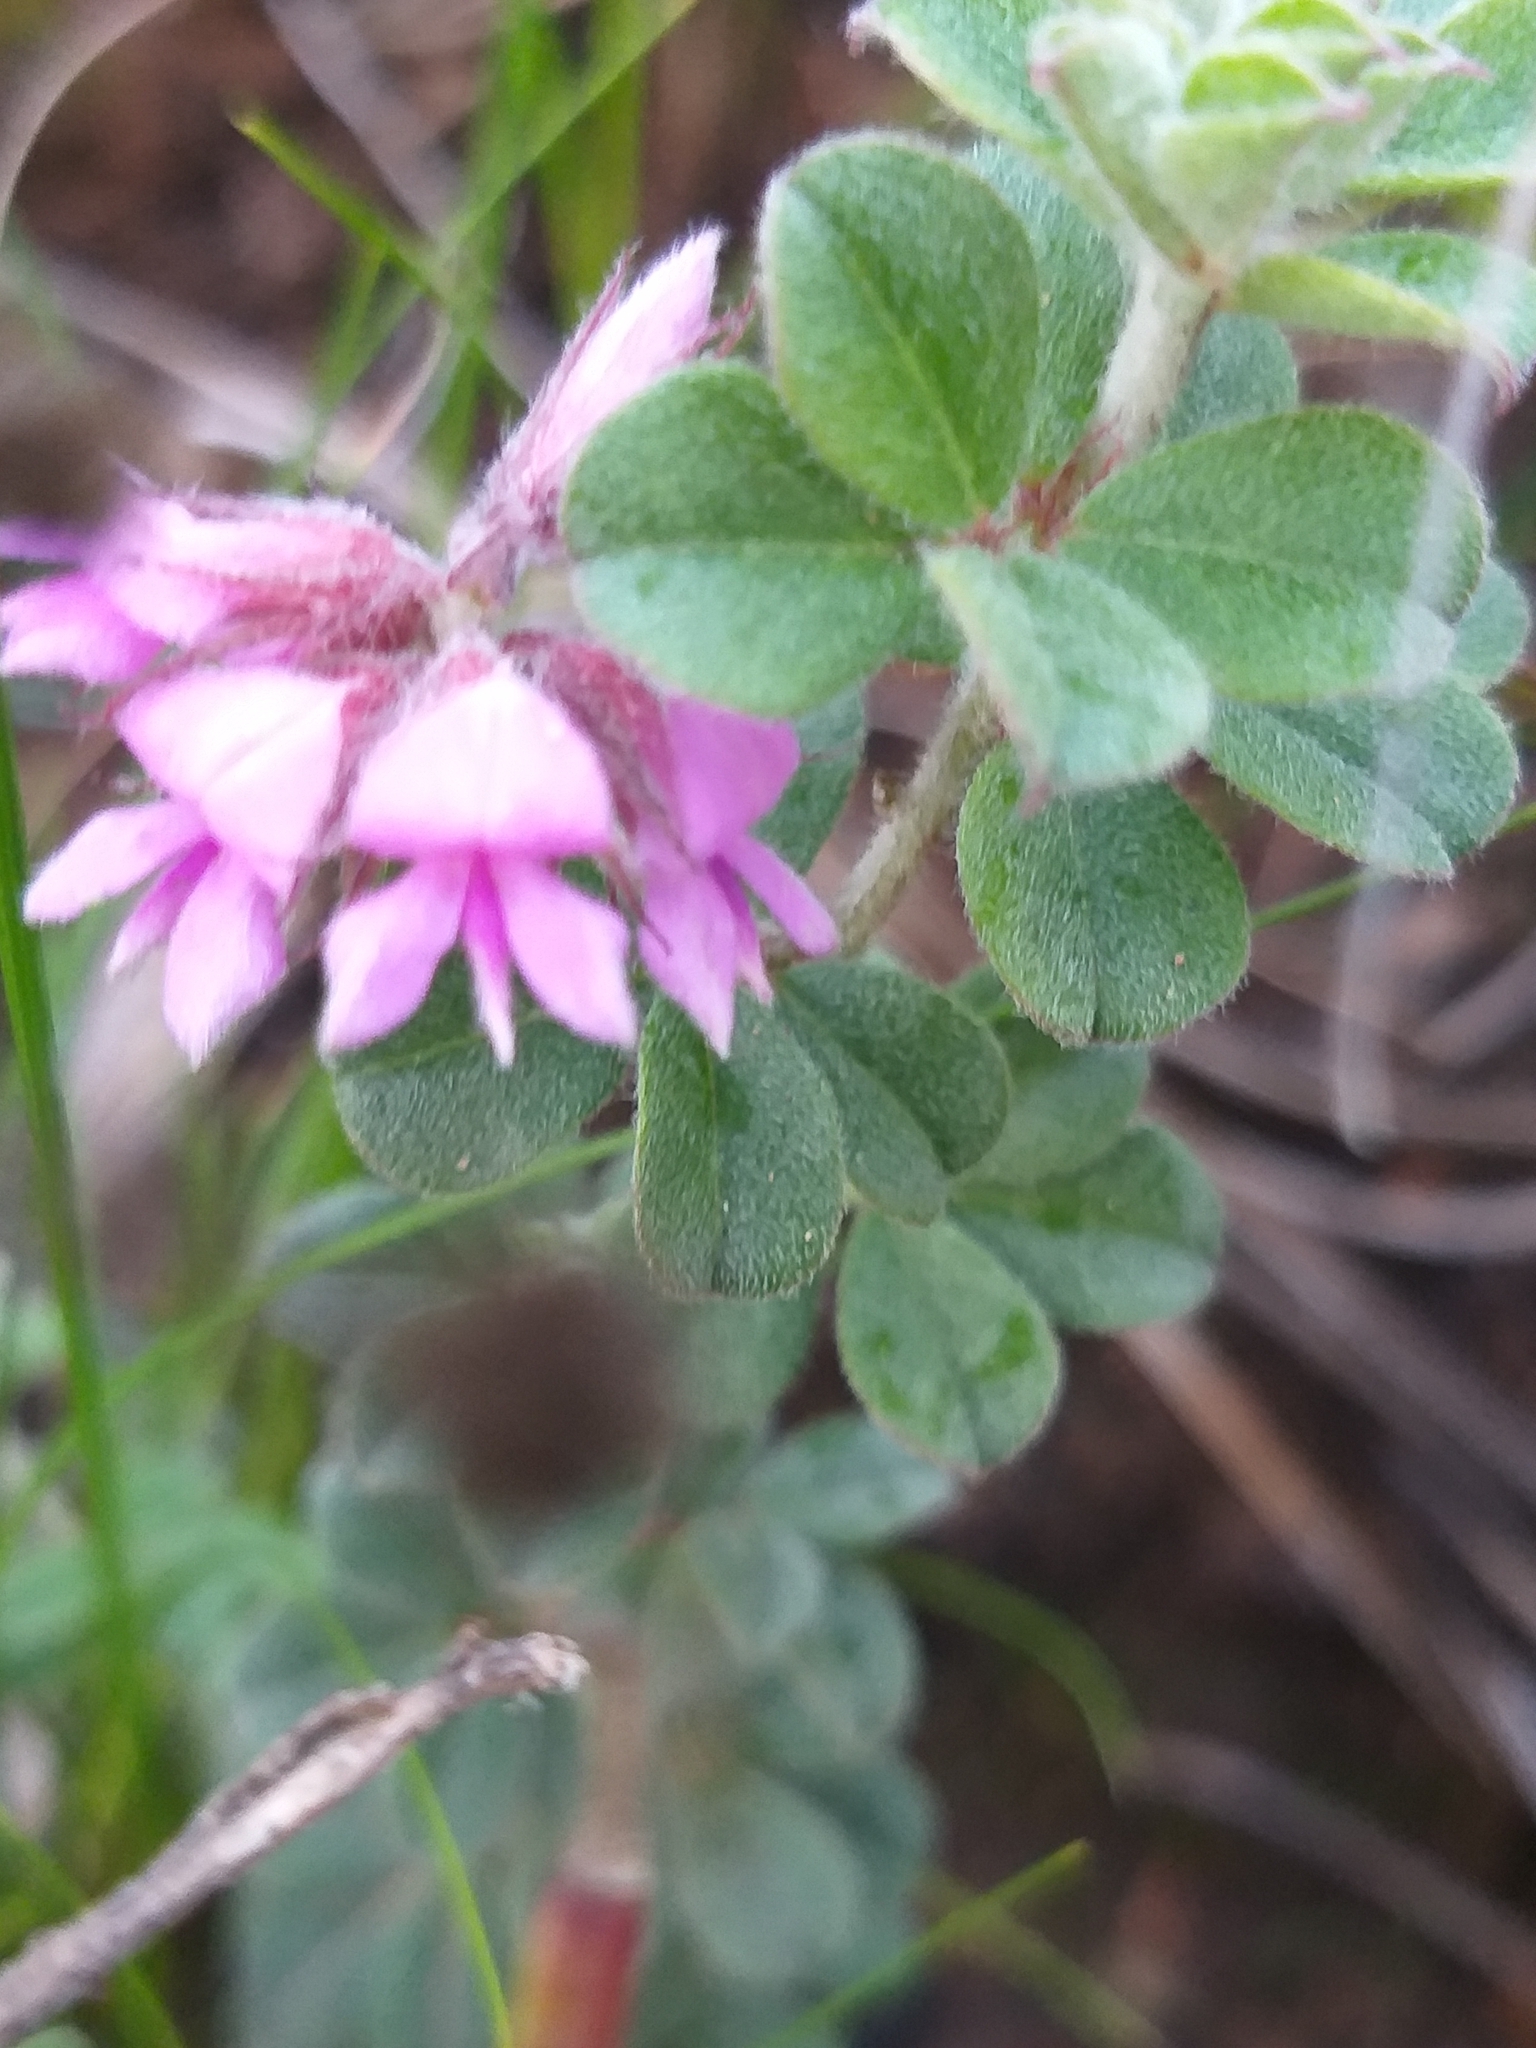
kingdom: Plantae
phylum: Tracheophyta
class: Magnoliopsida
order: Fabales
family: Fabaceae
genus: Indigofera
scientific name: Indigofera mauritanica
